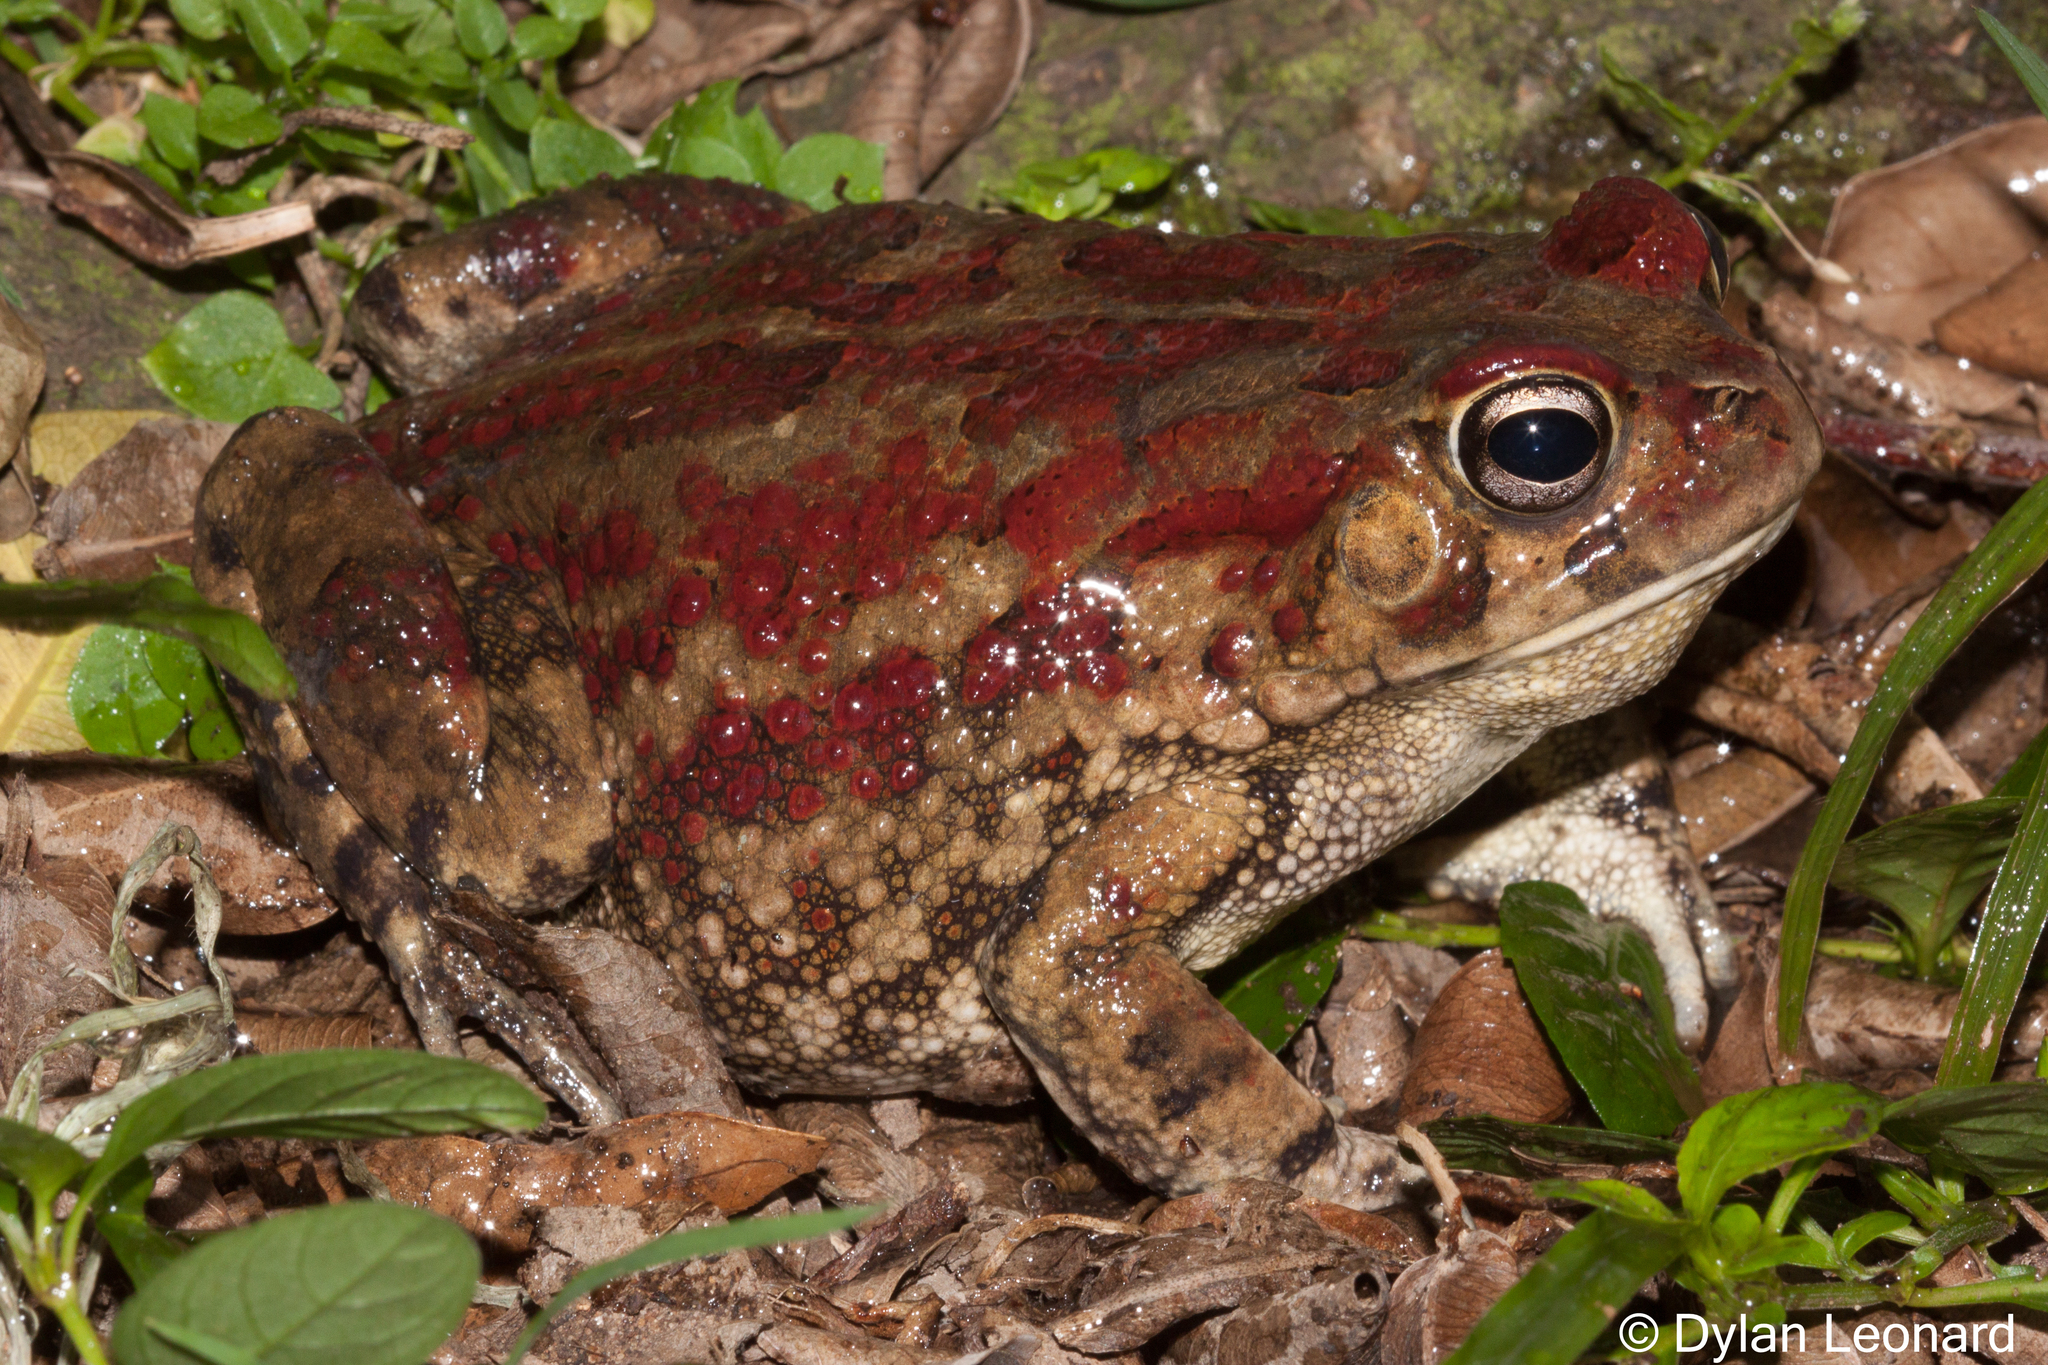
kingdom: Animalia
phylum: Chordata
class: Amphibia
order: Anura
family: Bufonidae
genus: Sclerophrys
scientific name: Sclerophrys garmani
